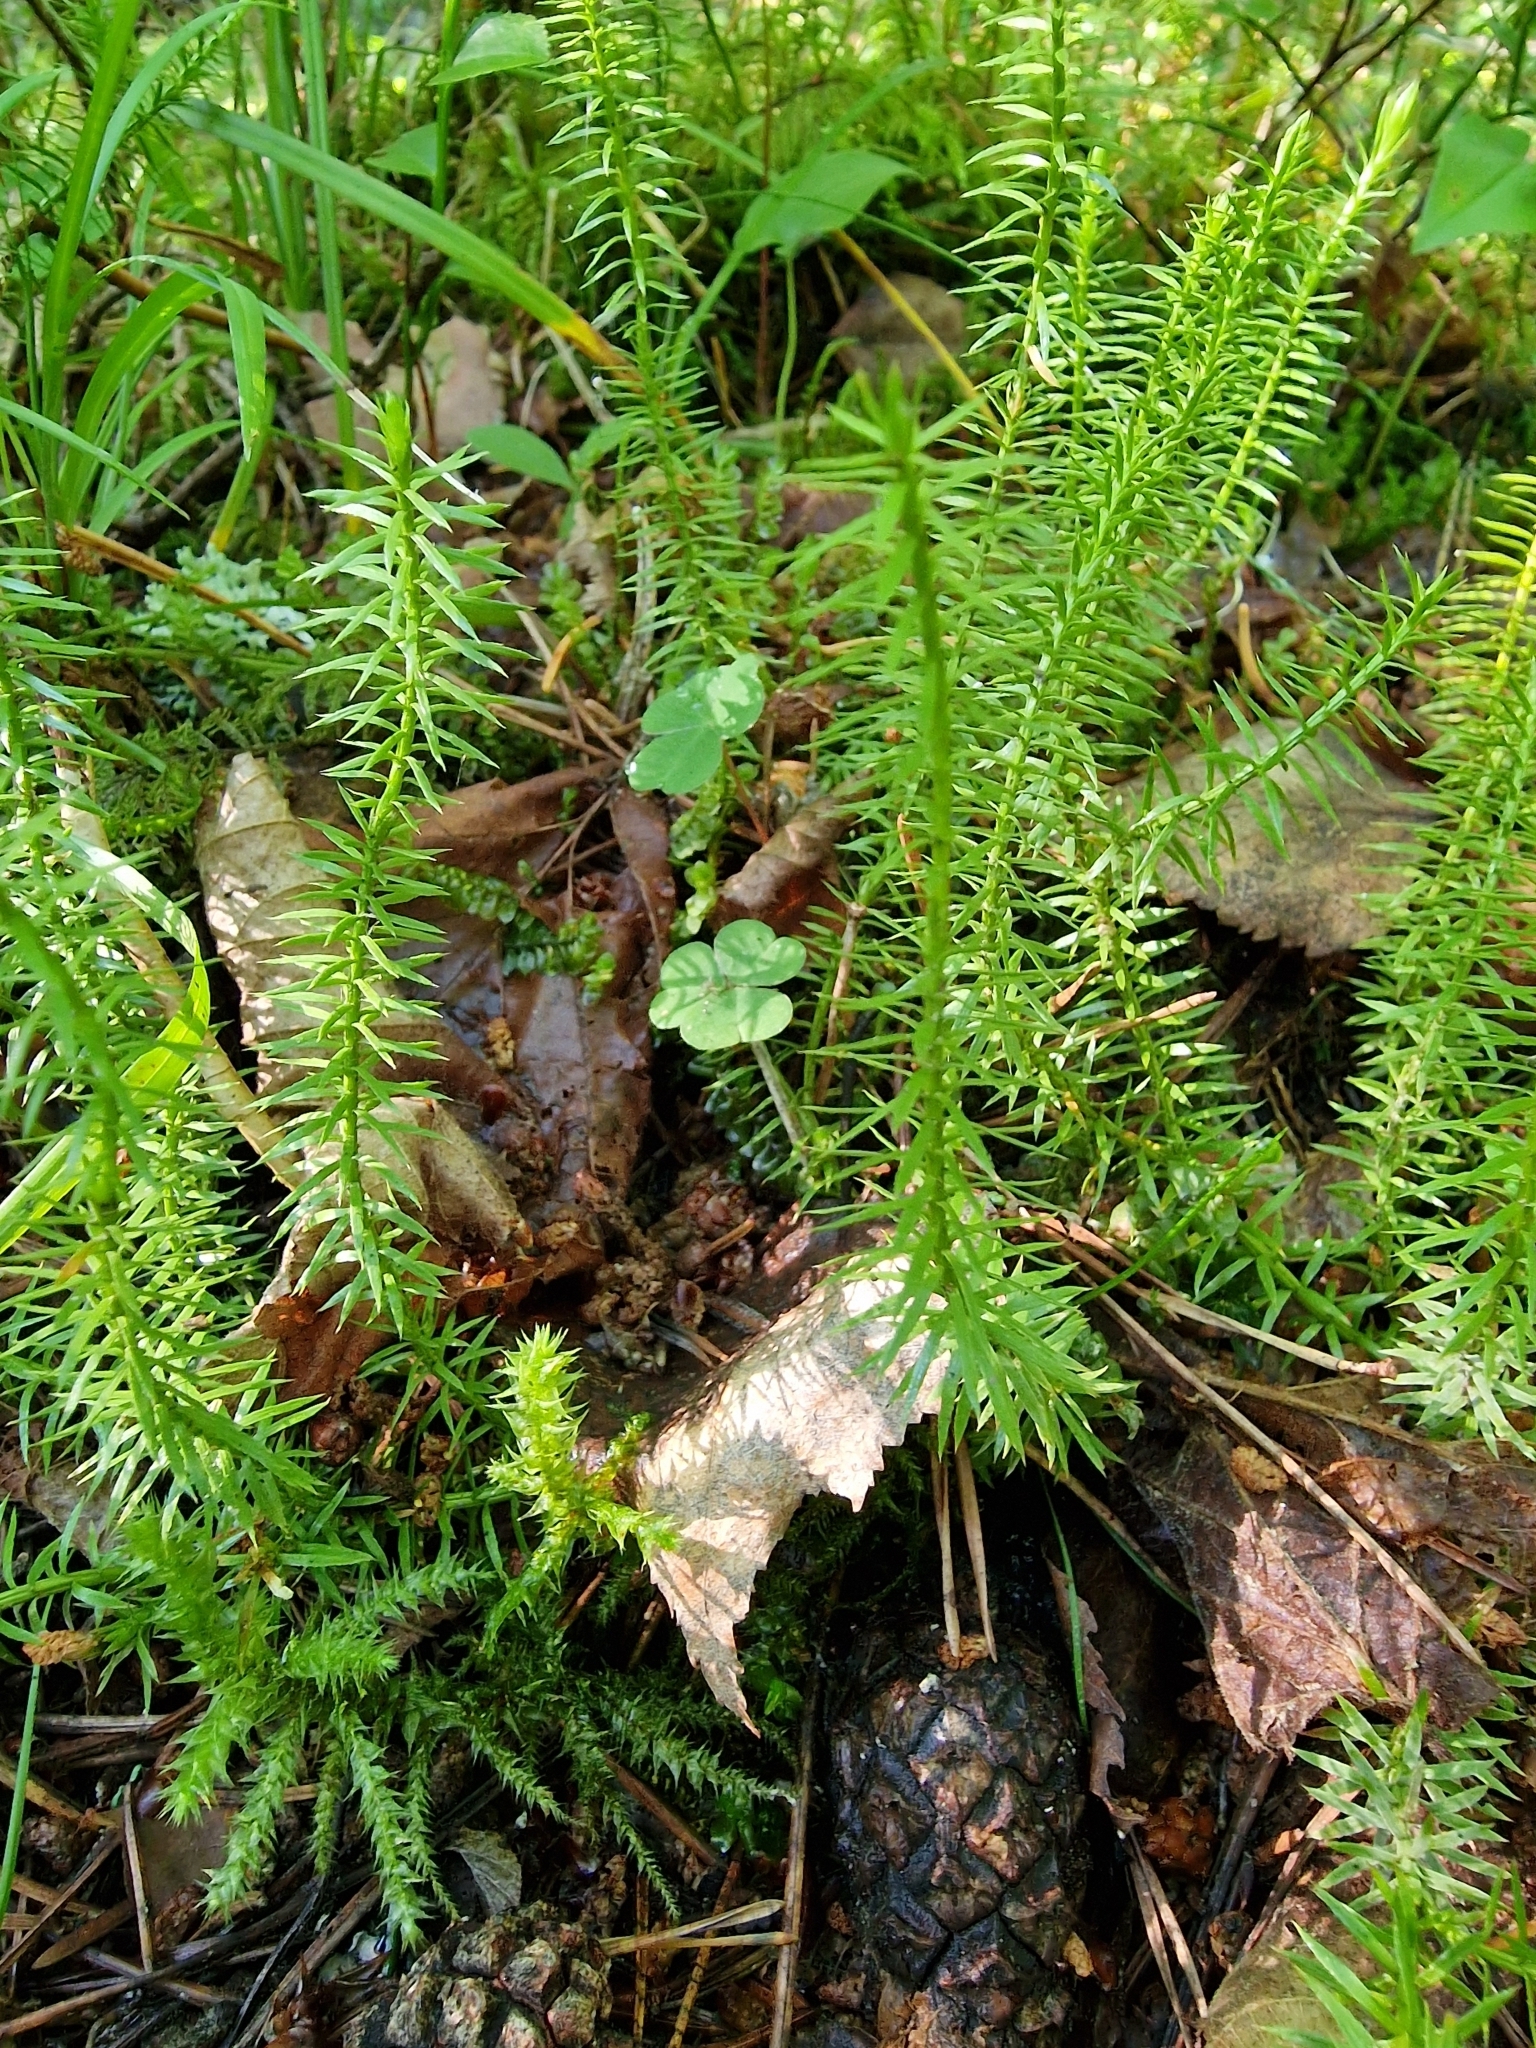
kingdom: Plantae
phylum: Tracheophyta
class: Lycopodiopsida
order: Lycopodiales
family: Lycopodiaceae
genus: Spinulum
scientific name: Spinulum annotinum
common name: Interrupted club-moss
